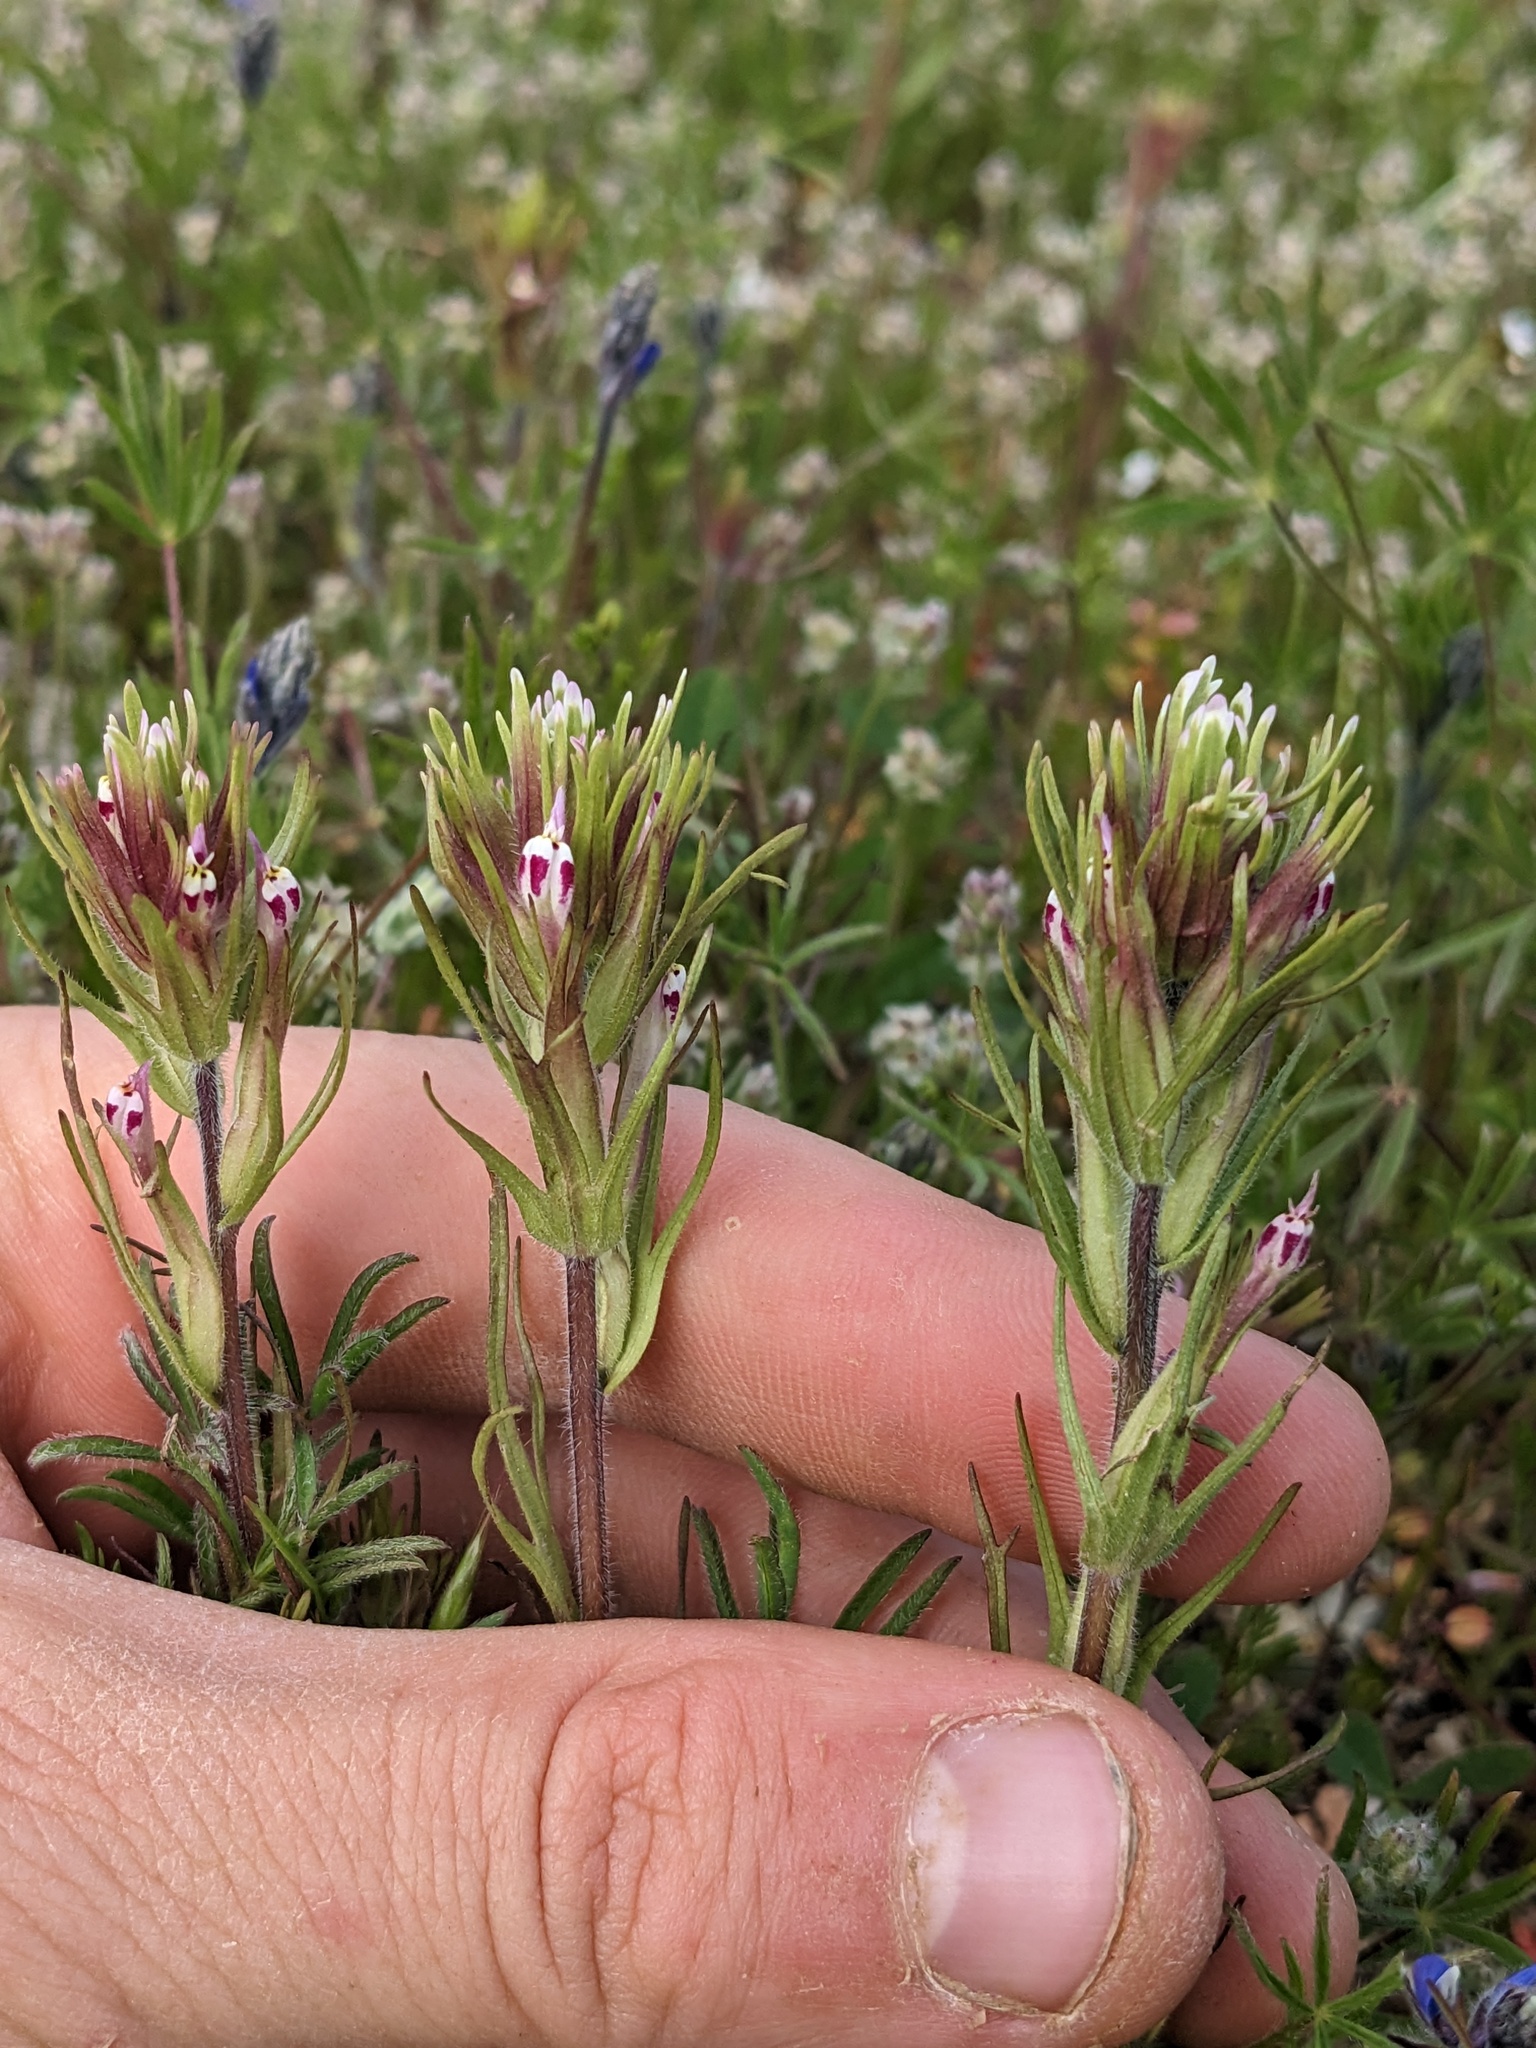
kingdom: Plantae
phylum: Tracheophyta
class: Magnoliopsida
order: Lamiales
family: Orobanchaceae
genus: Castilleja
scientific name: Castilleja brevistyla
